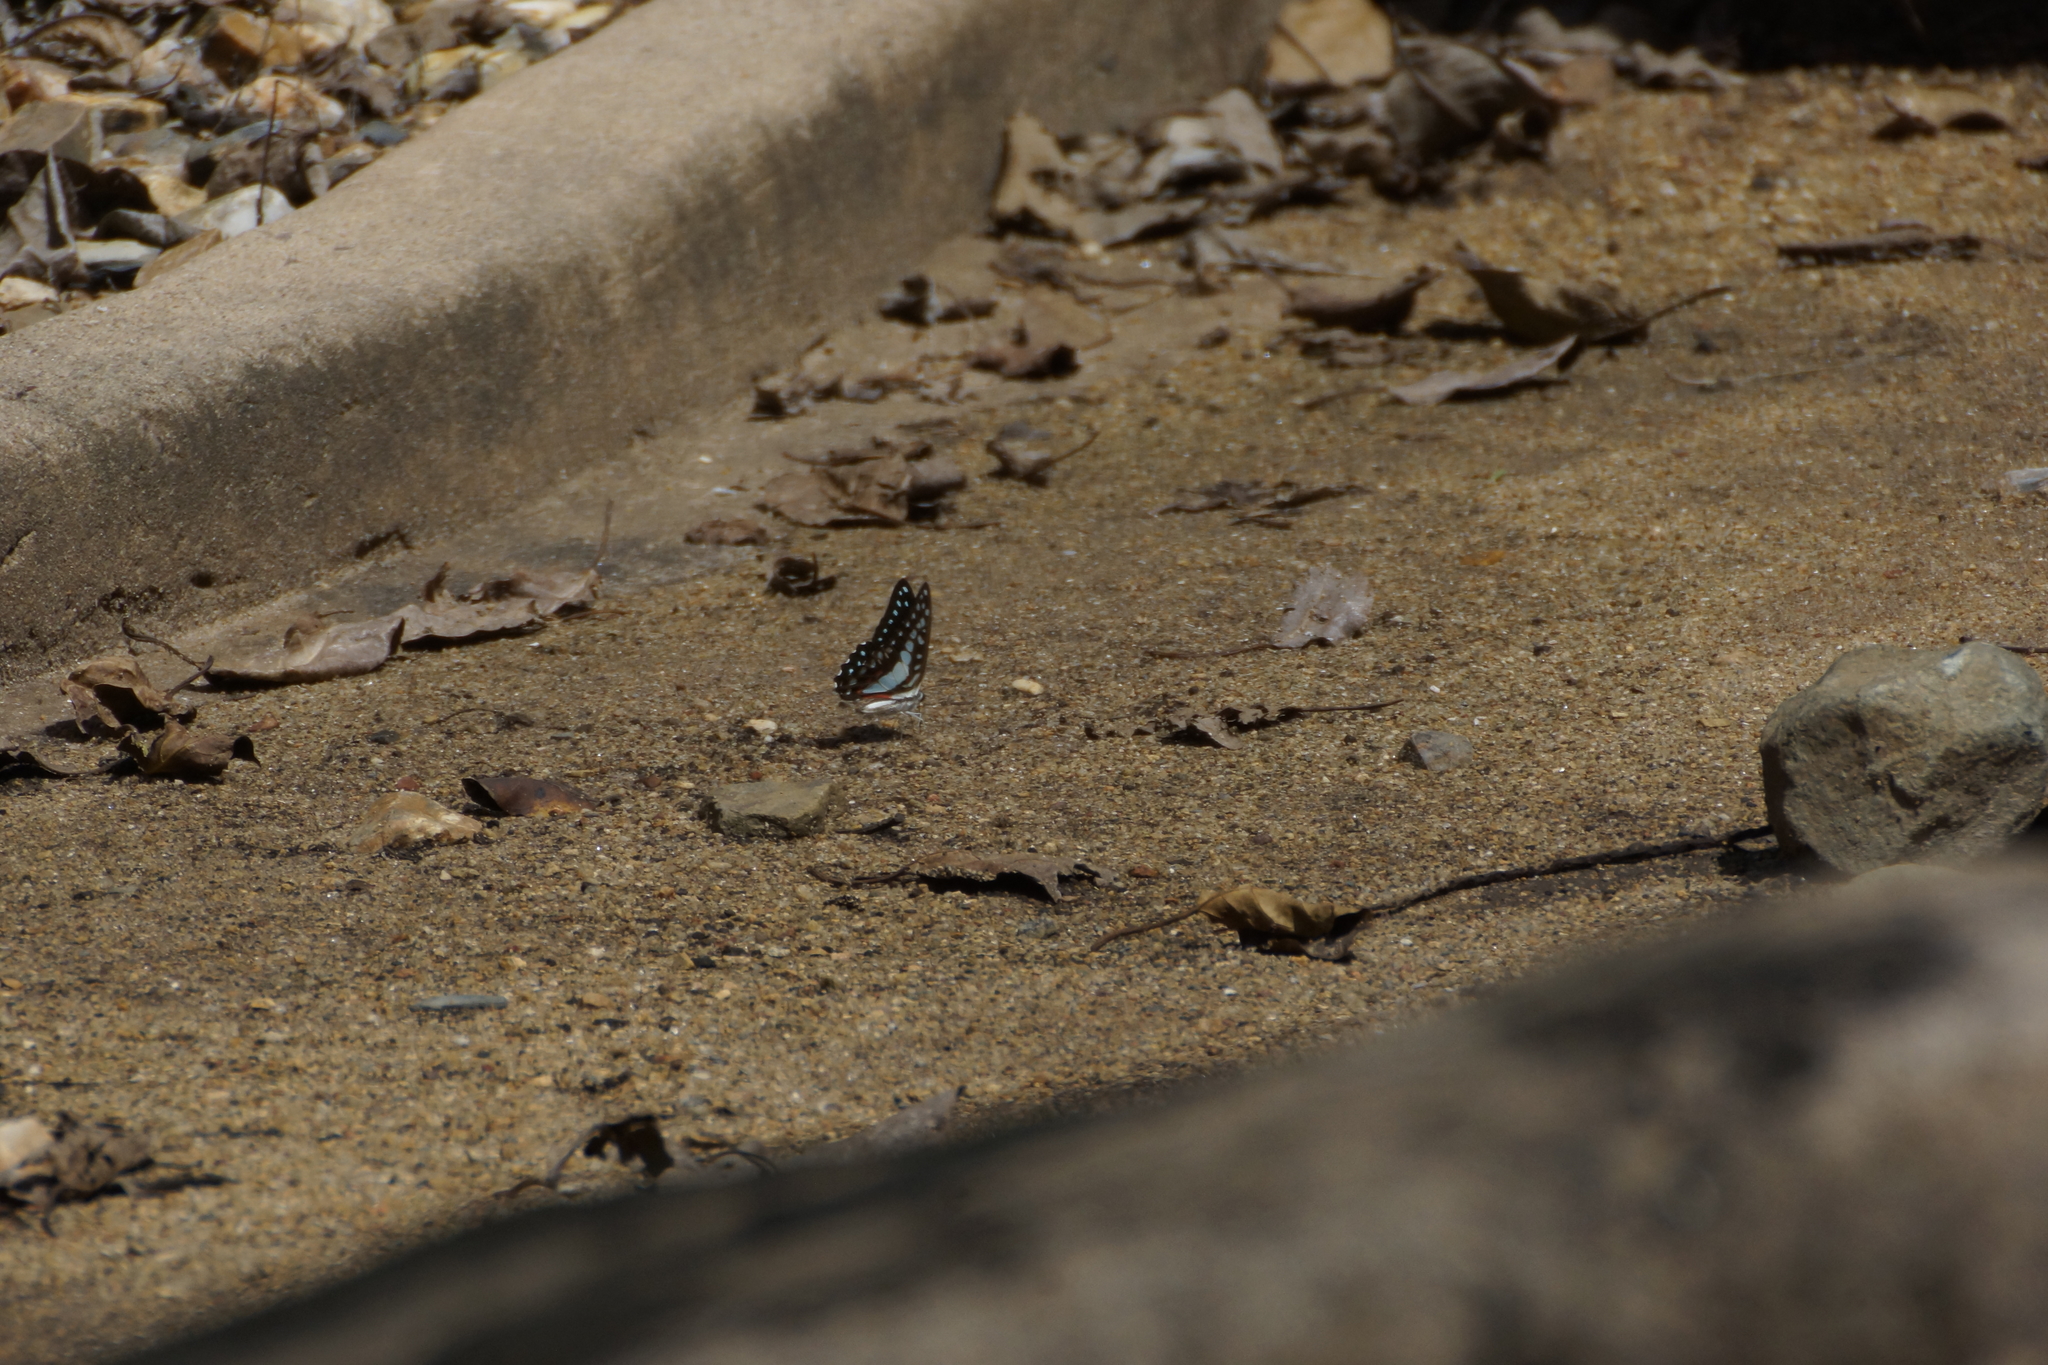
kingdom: Animalia
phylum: Arthropoda
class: Insecta
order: Lepidoptera
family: Papilionidae
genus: Graphium
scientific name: Graphium eurypylus
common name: Great jay
